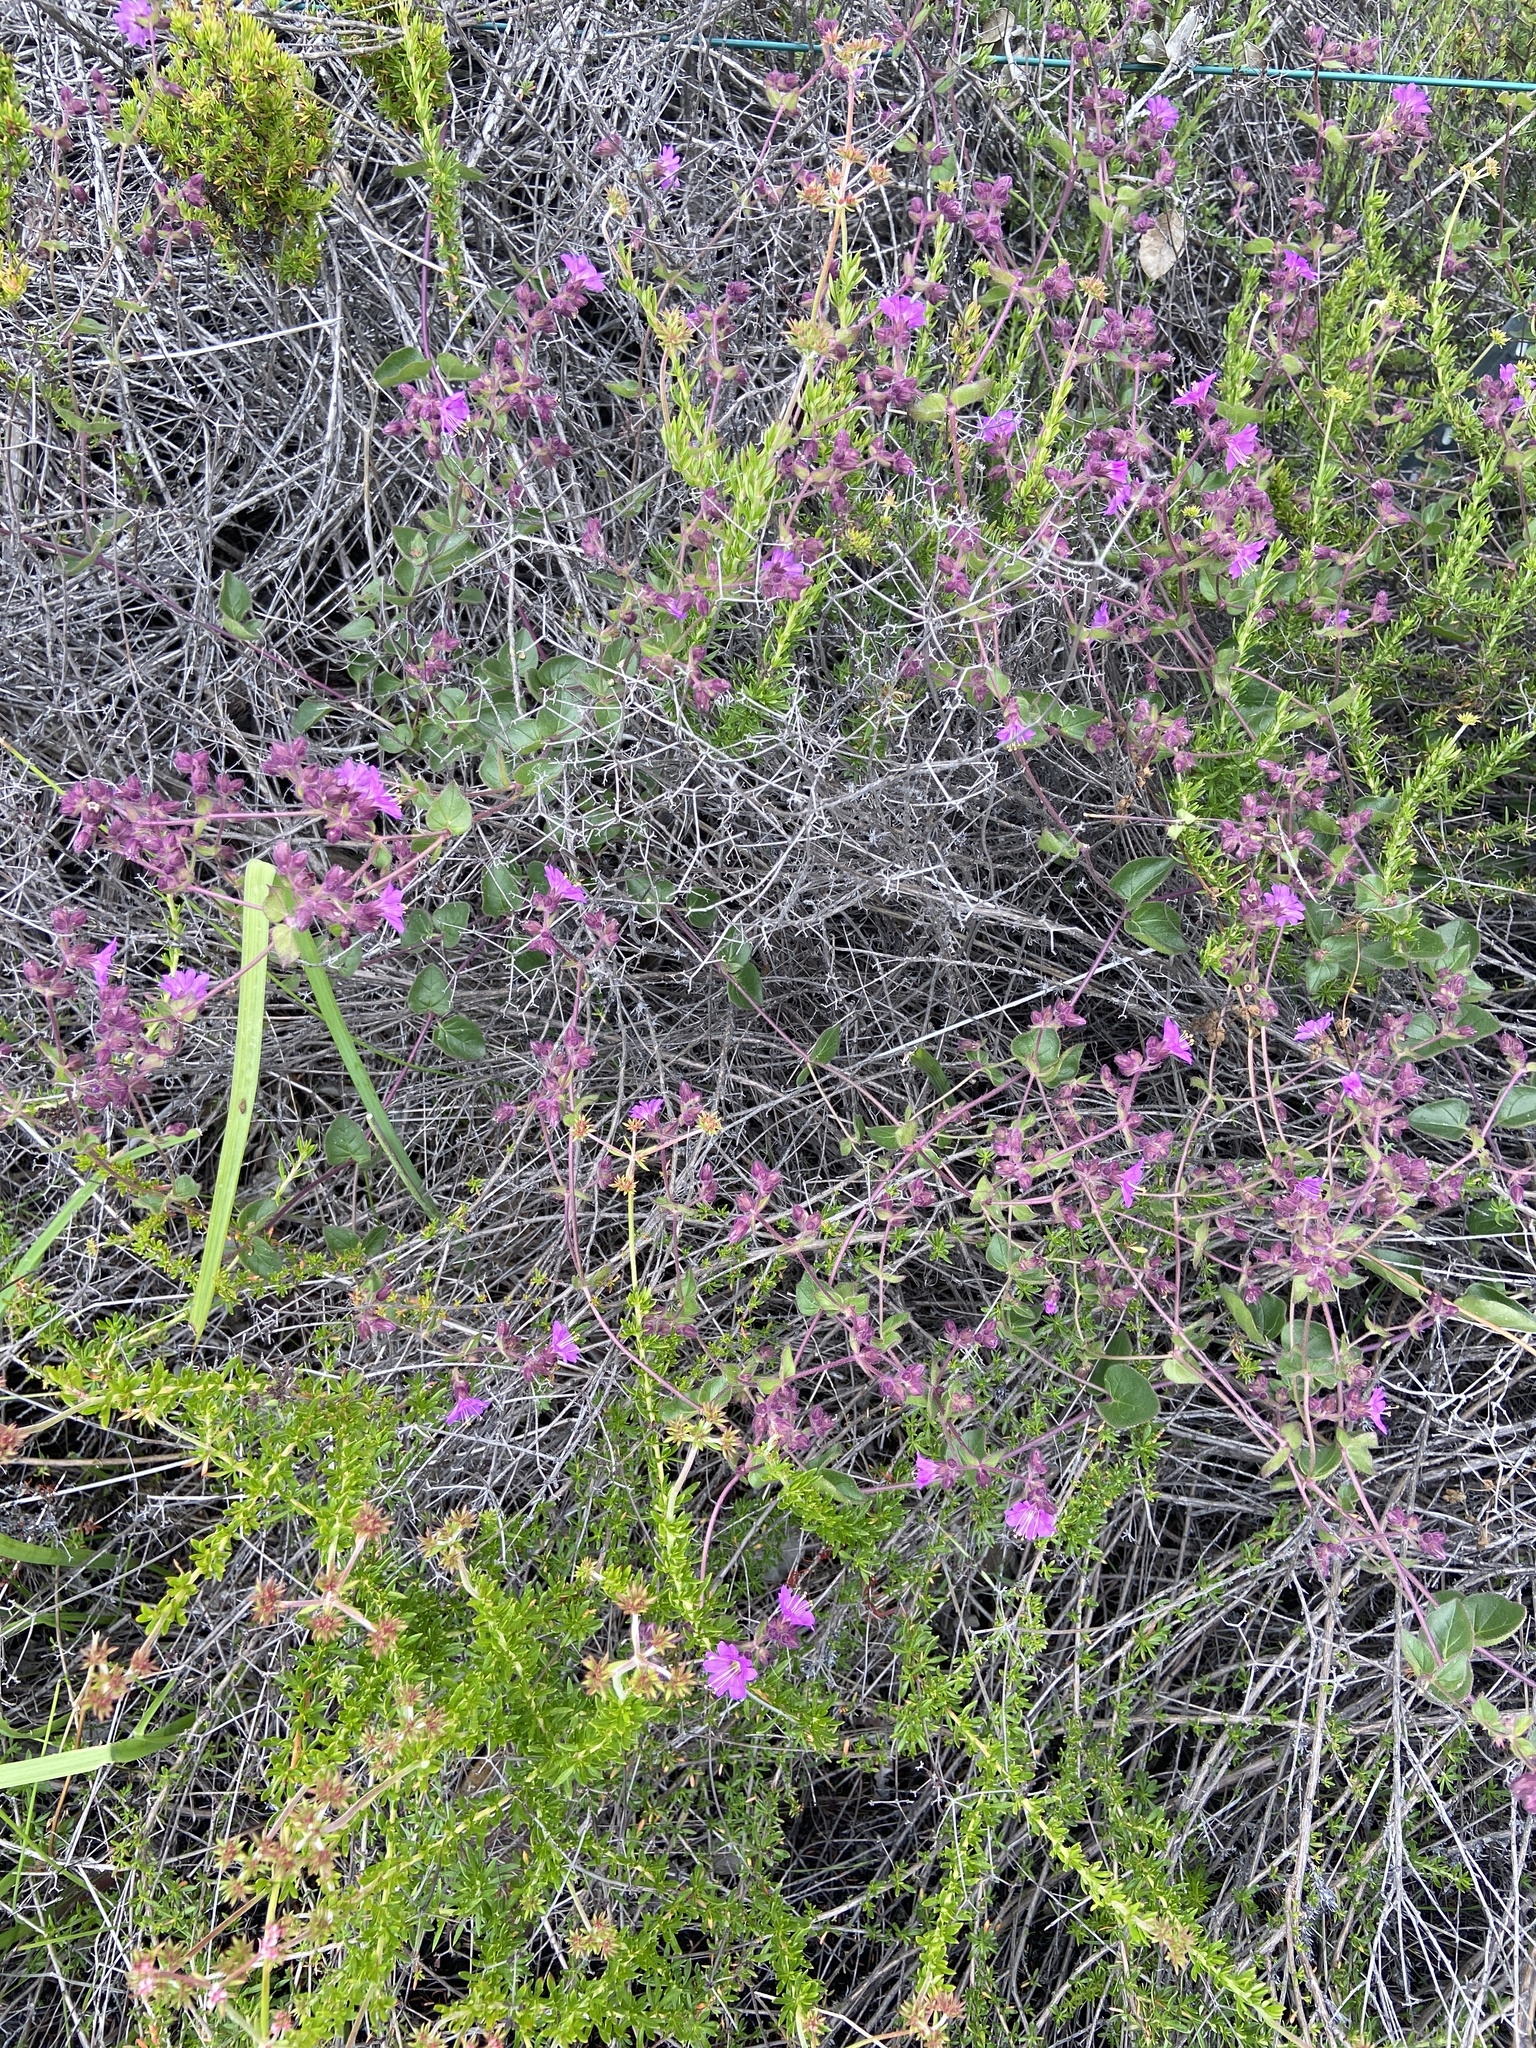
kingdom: Plantae
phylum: Tracheophyta
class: Magnoliopsida
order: Caryophyllales
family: Nyctaginaceae
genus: Mirabilis
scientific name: Mirabilis laevis
